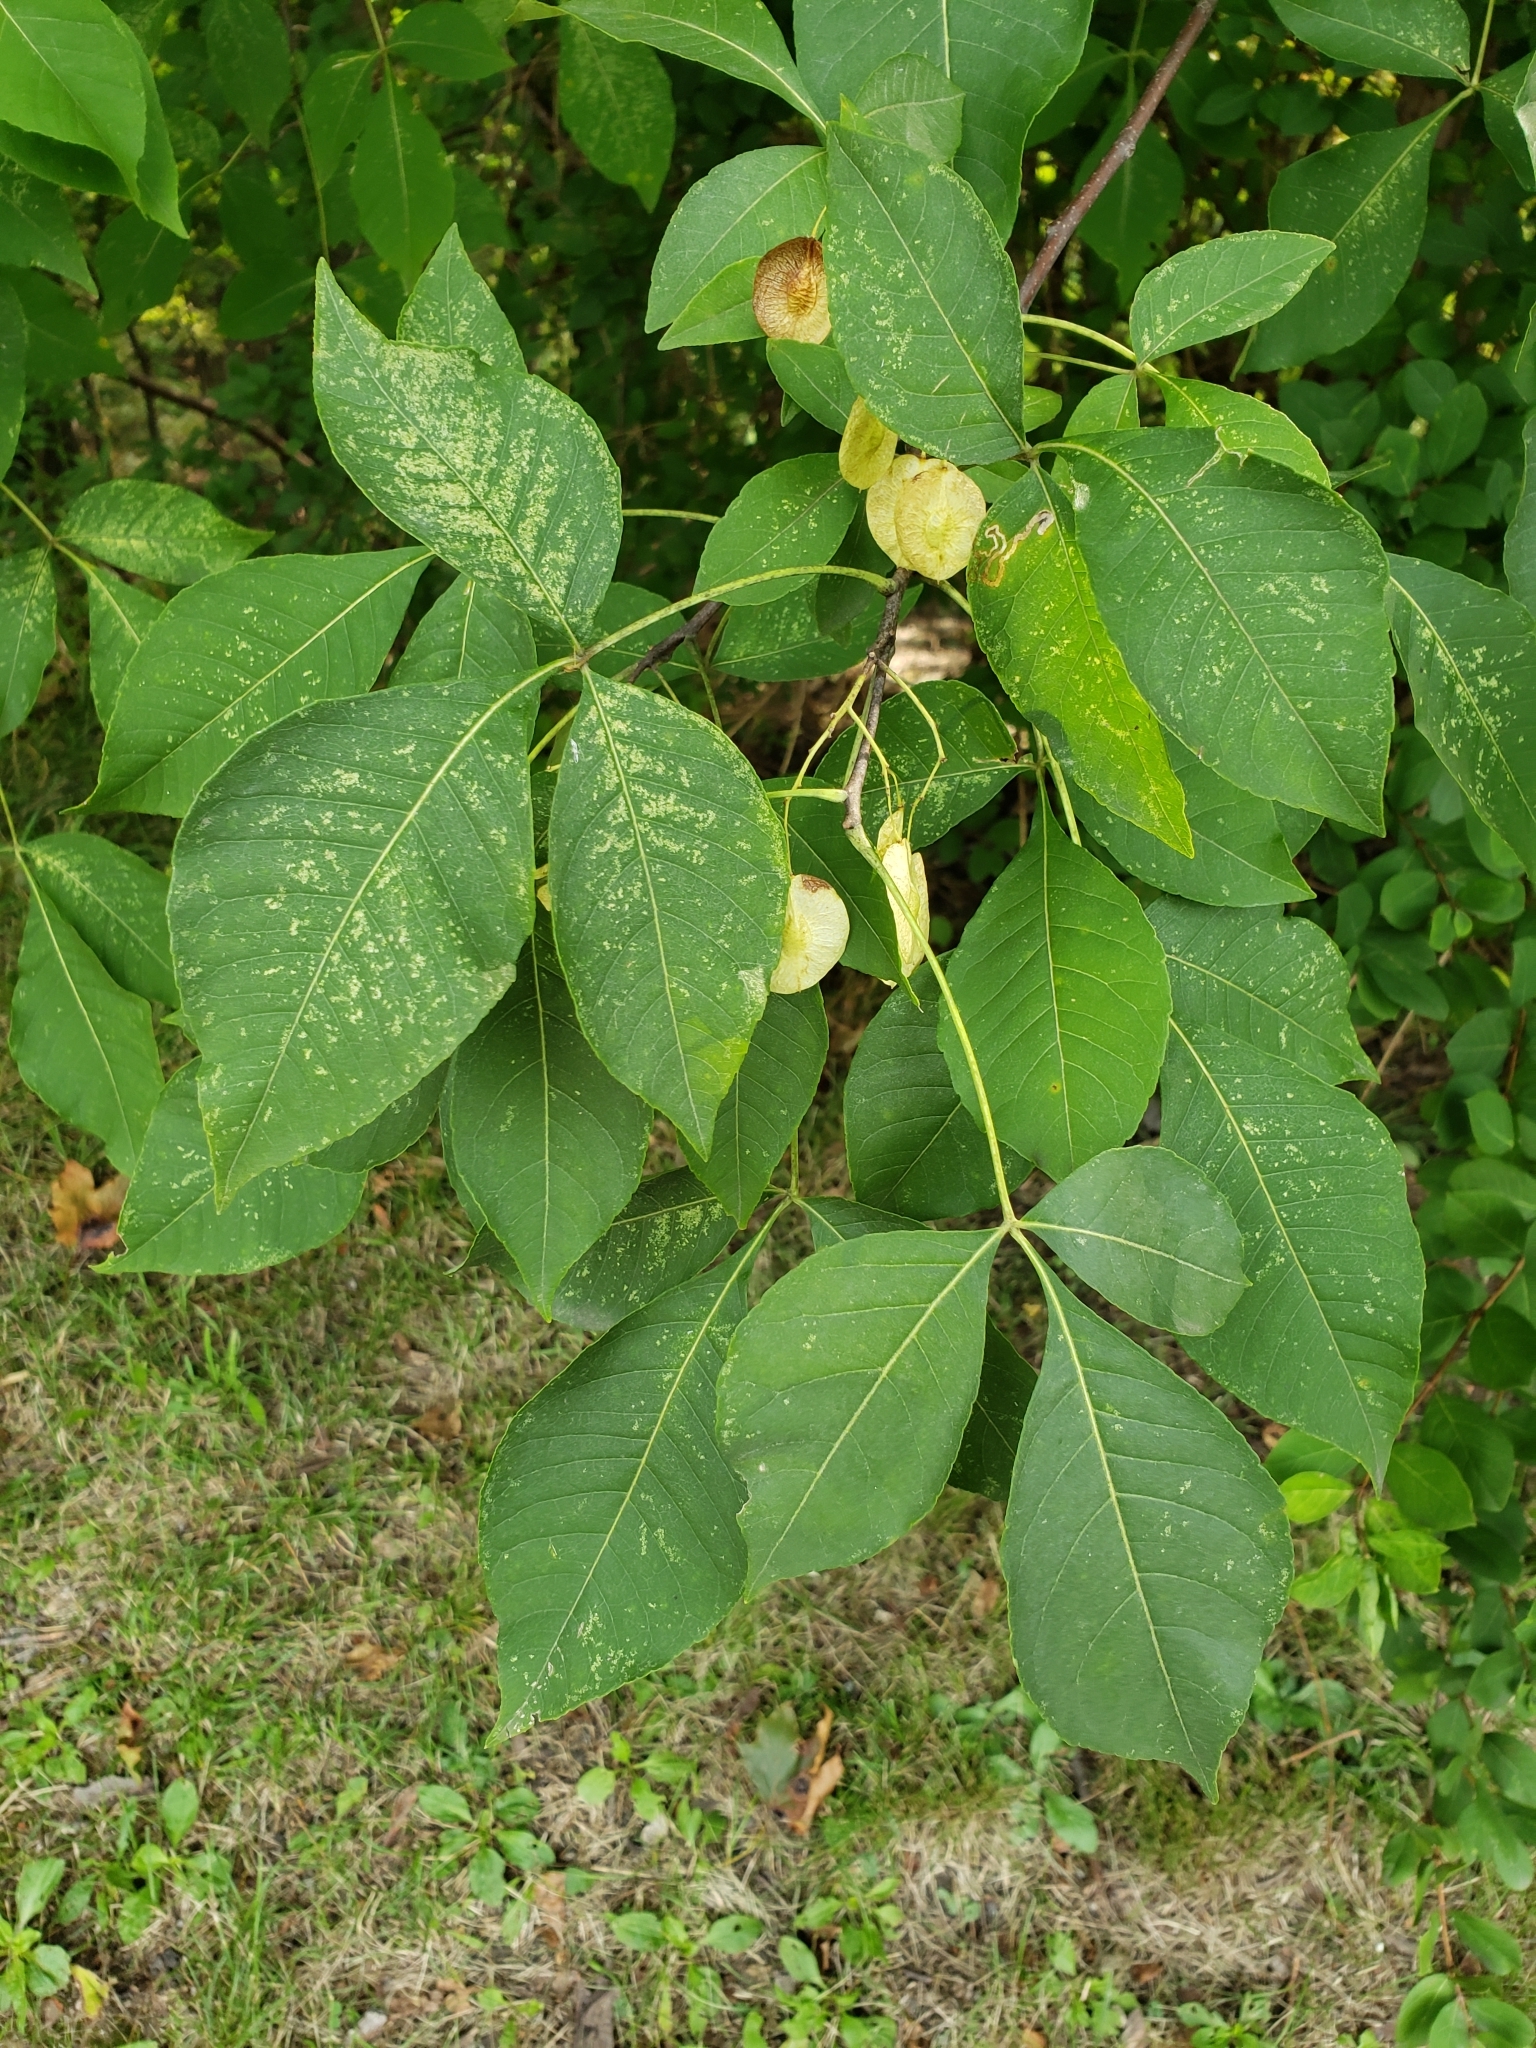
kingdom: Plantae
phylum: Tracheophyta
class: Magnoliopsida
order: Sapindales
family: Rutaceae
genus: Ptelea
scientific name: Ptelea trifoliata
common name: Common hop-tree
